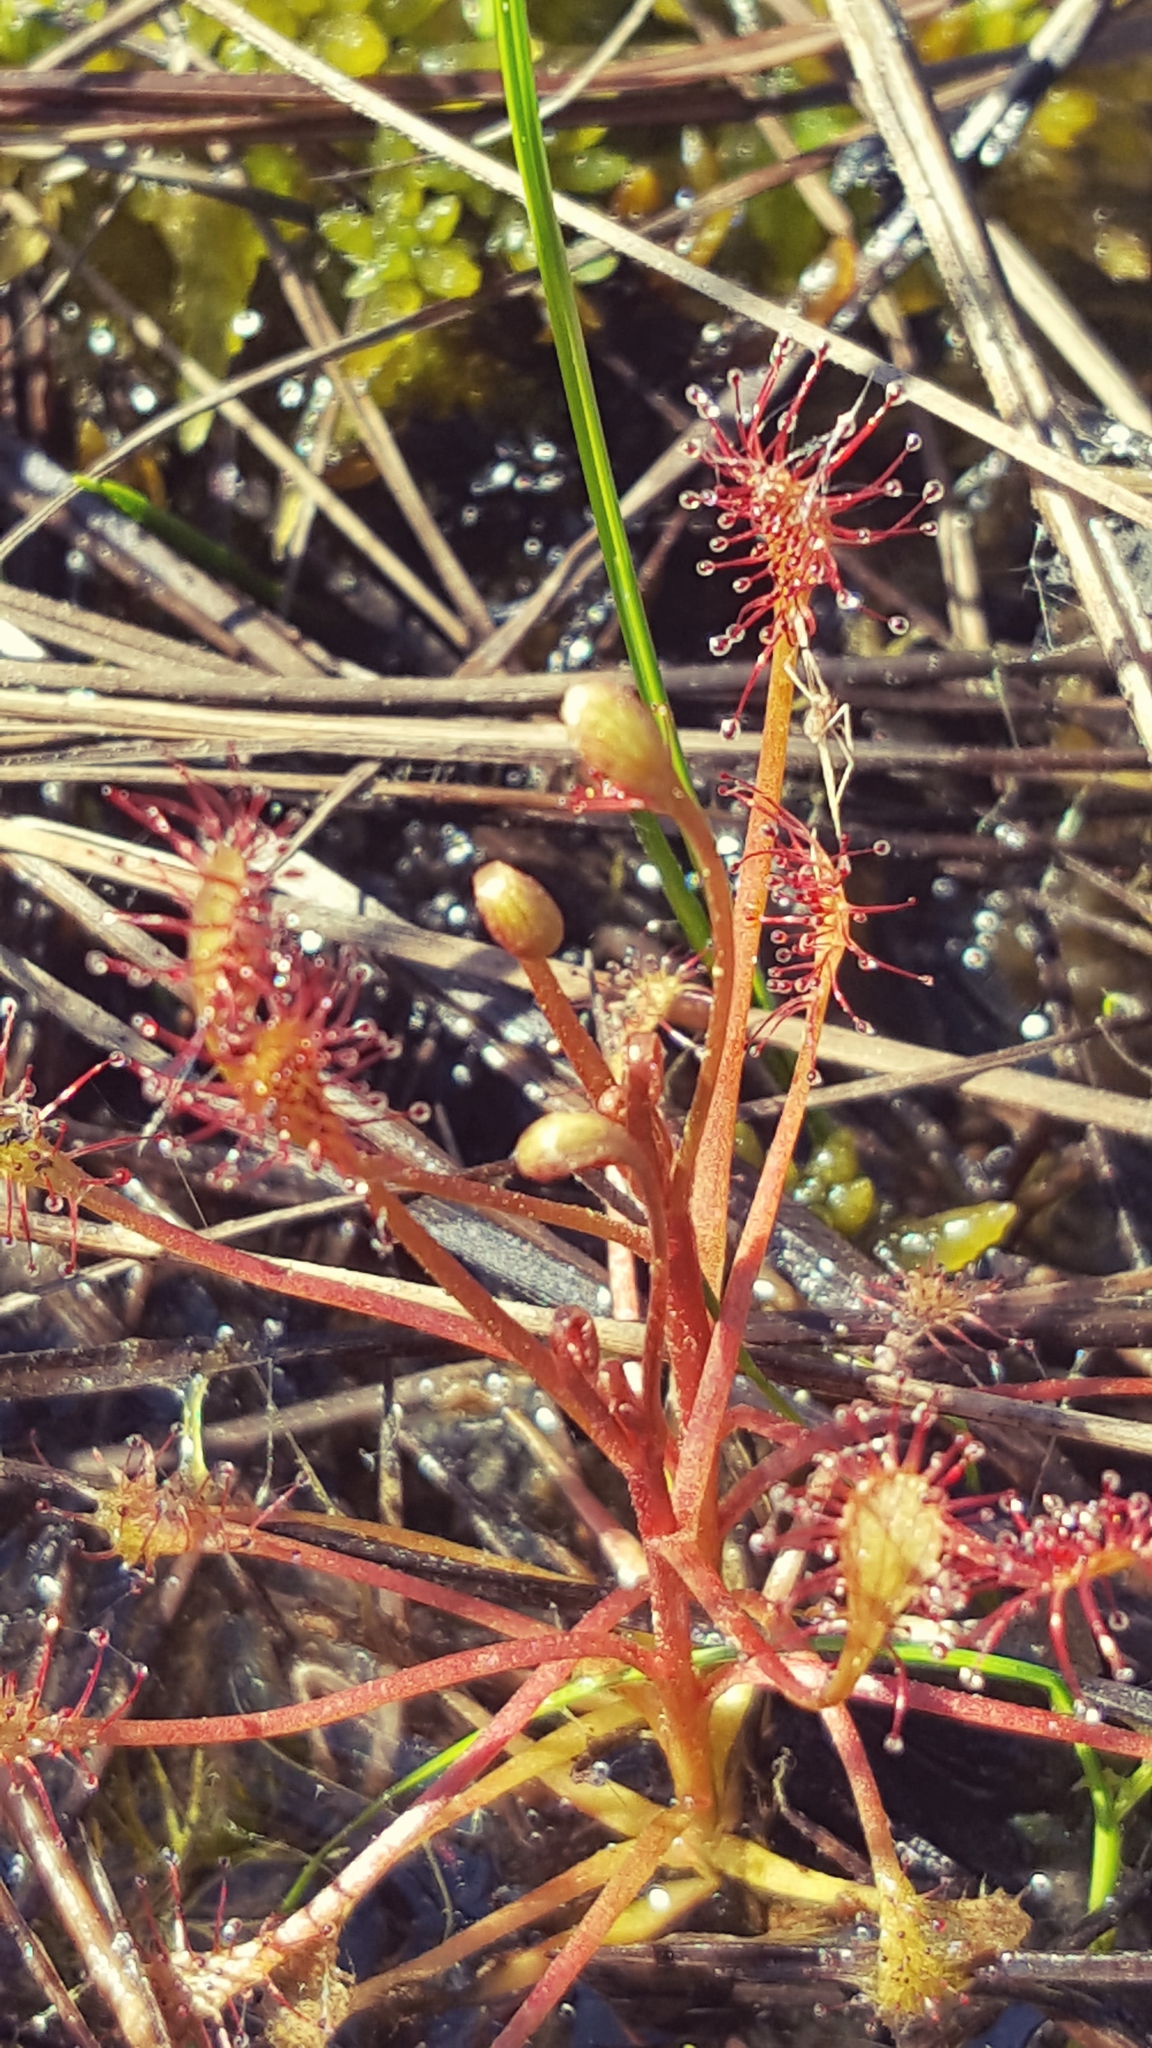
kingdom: Plantae
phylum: Tracheophyta
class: Magnoliopsida
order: Caryophyllales
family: Droseraceae
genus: Drosera
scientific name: Drosera intermedia
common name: Oblong-leaved sundew
